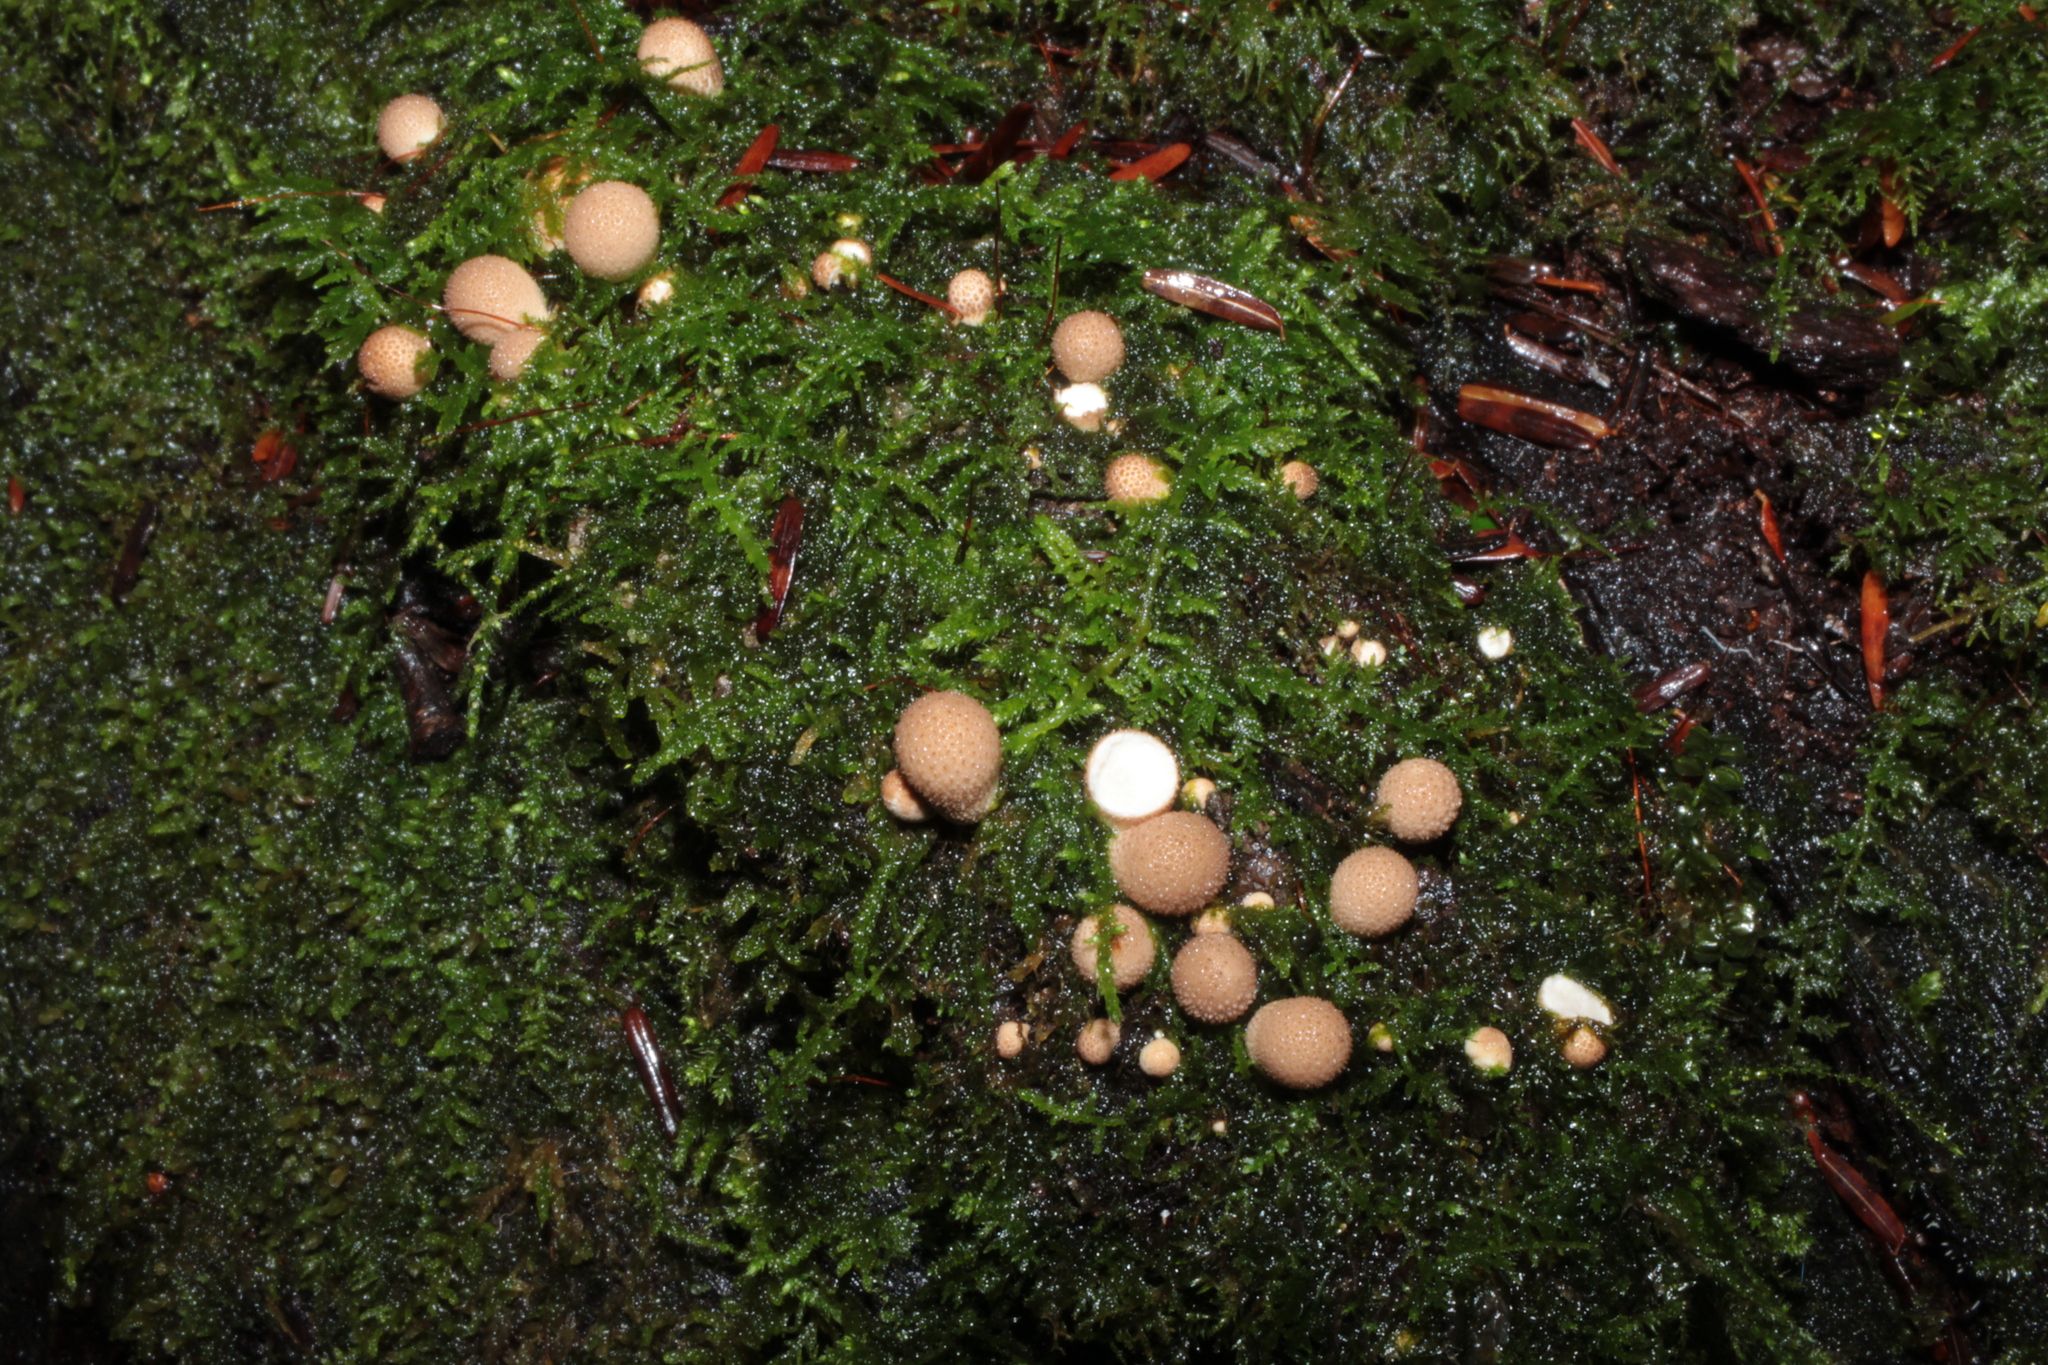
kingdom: Fungi
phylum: Basidiomycota
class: Agaricomycetes
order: Agaricales
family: Lycoperdaceae
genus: Apioperdon
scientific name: Apioperdon pyriforme
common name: Pear-shaped puffball
